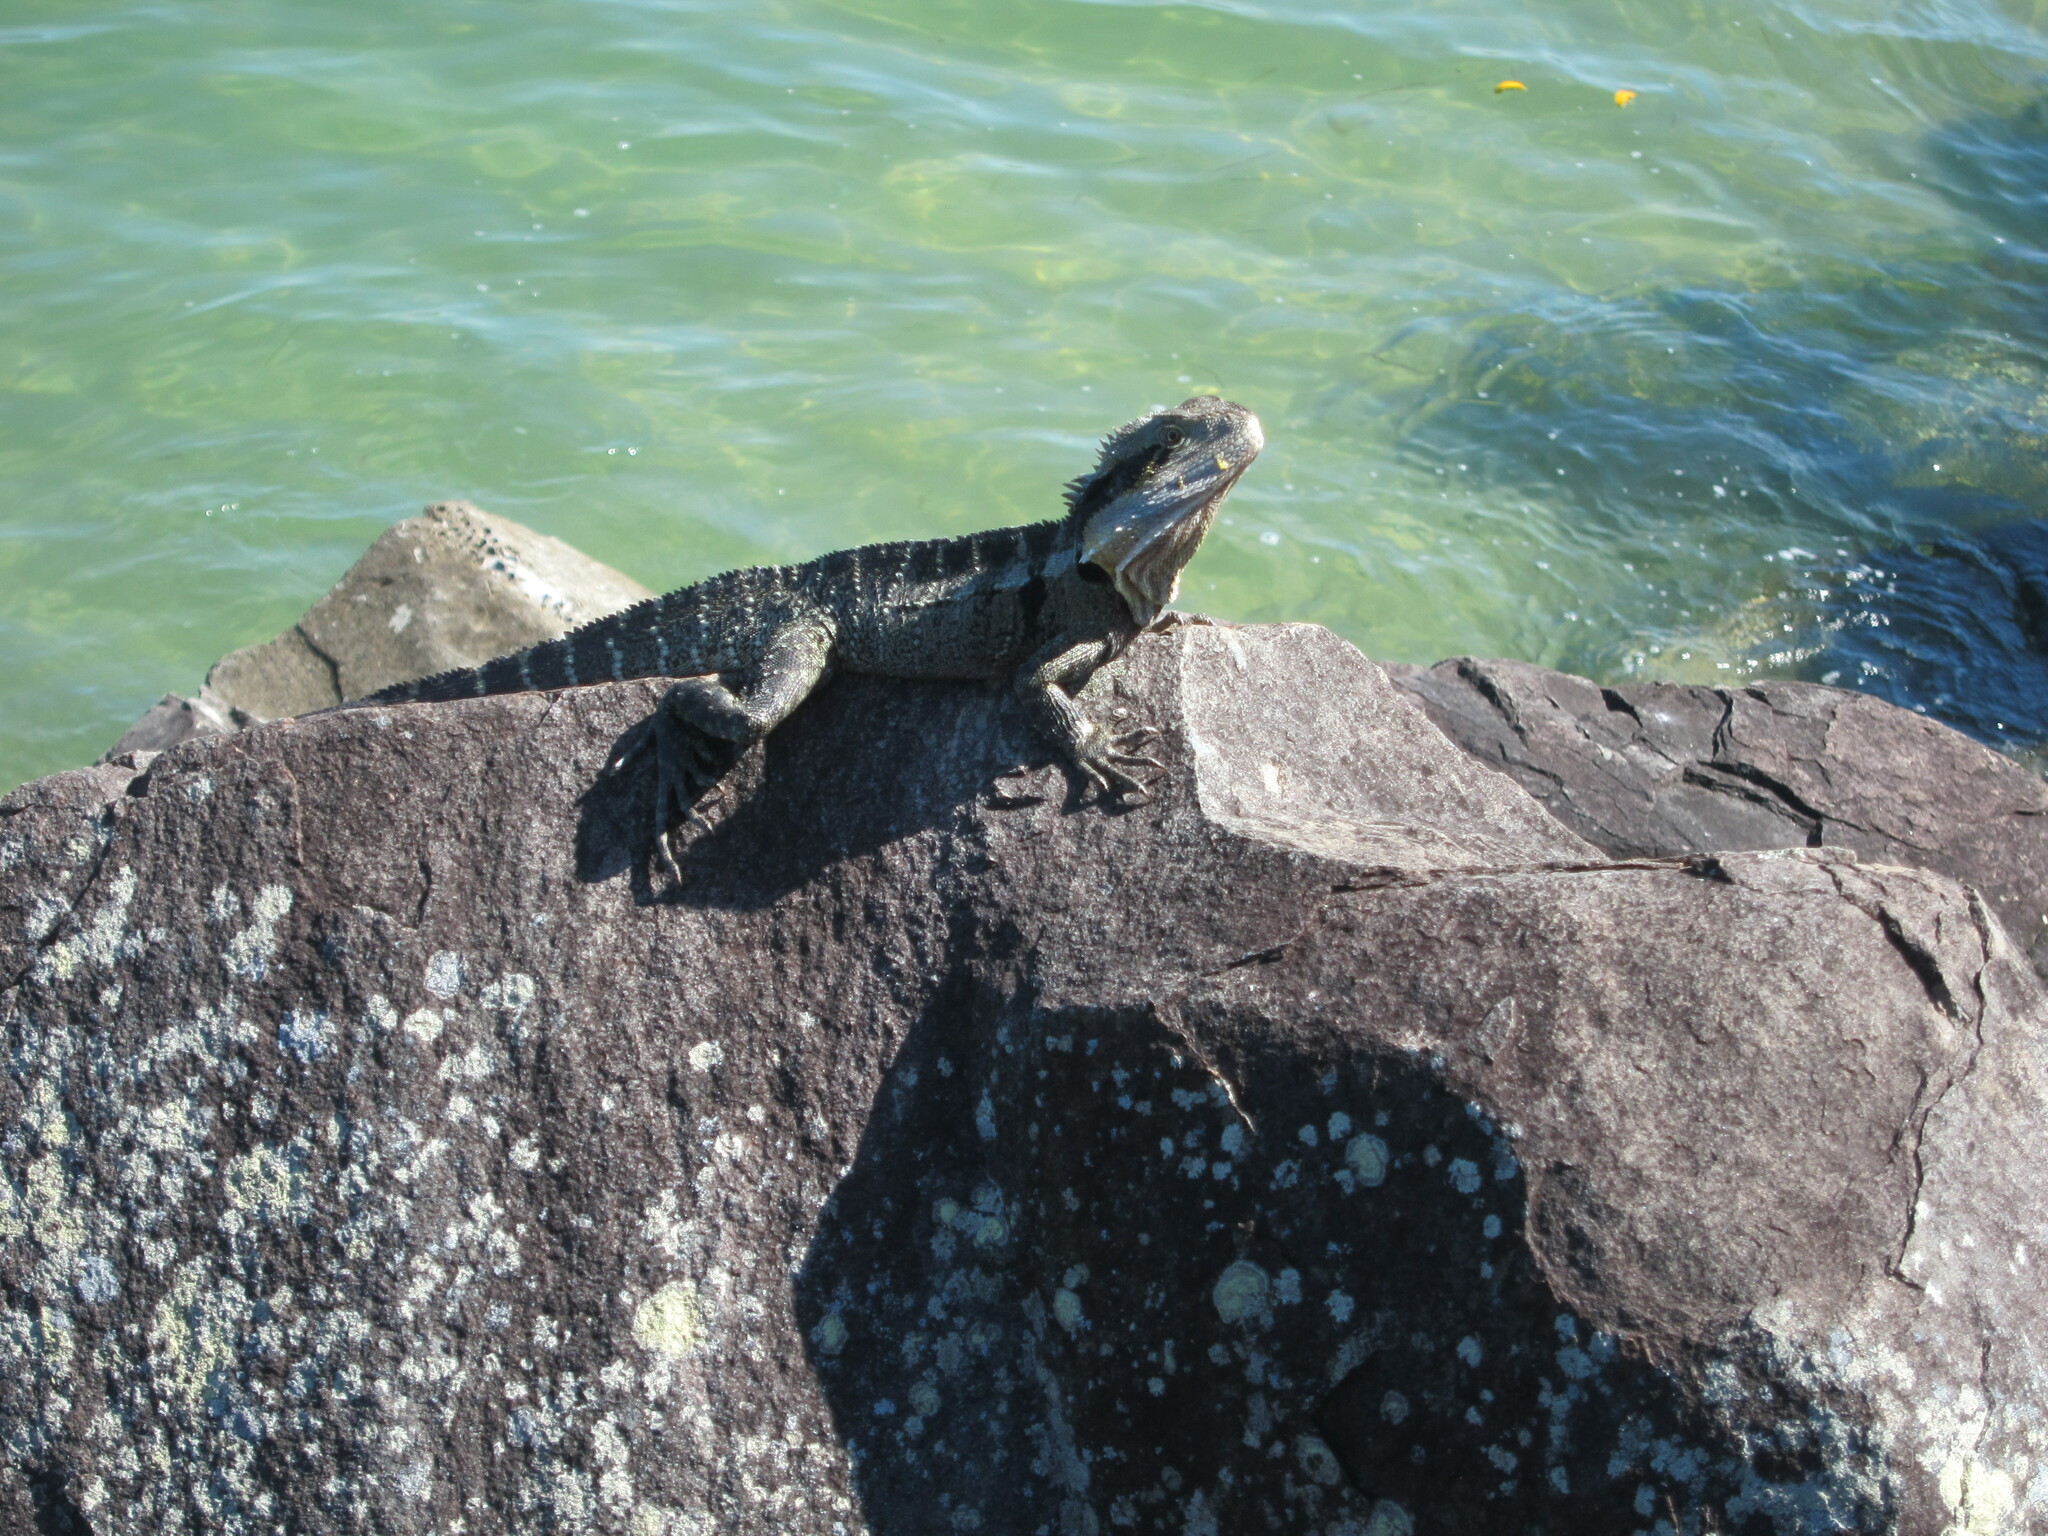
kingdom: Animalia
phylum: Chordata
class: Squamata
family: Agamidae
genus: Intellagama
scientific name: Intellagama lesueurii
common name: Eastern water dragon
